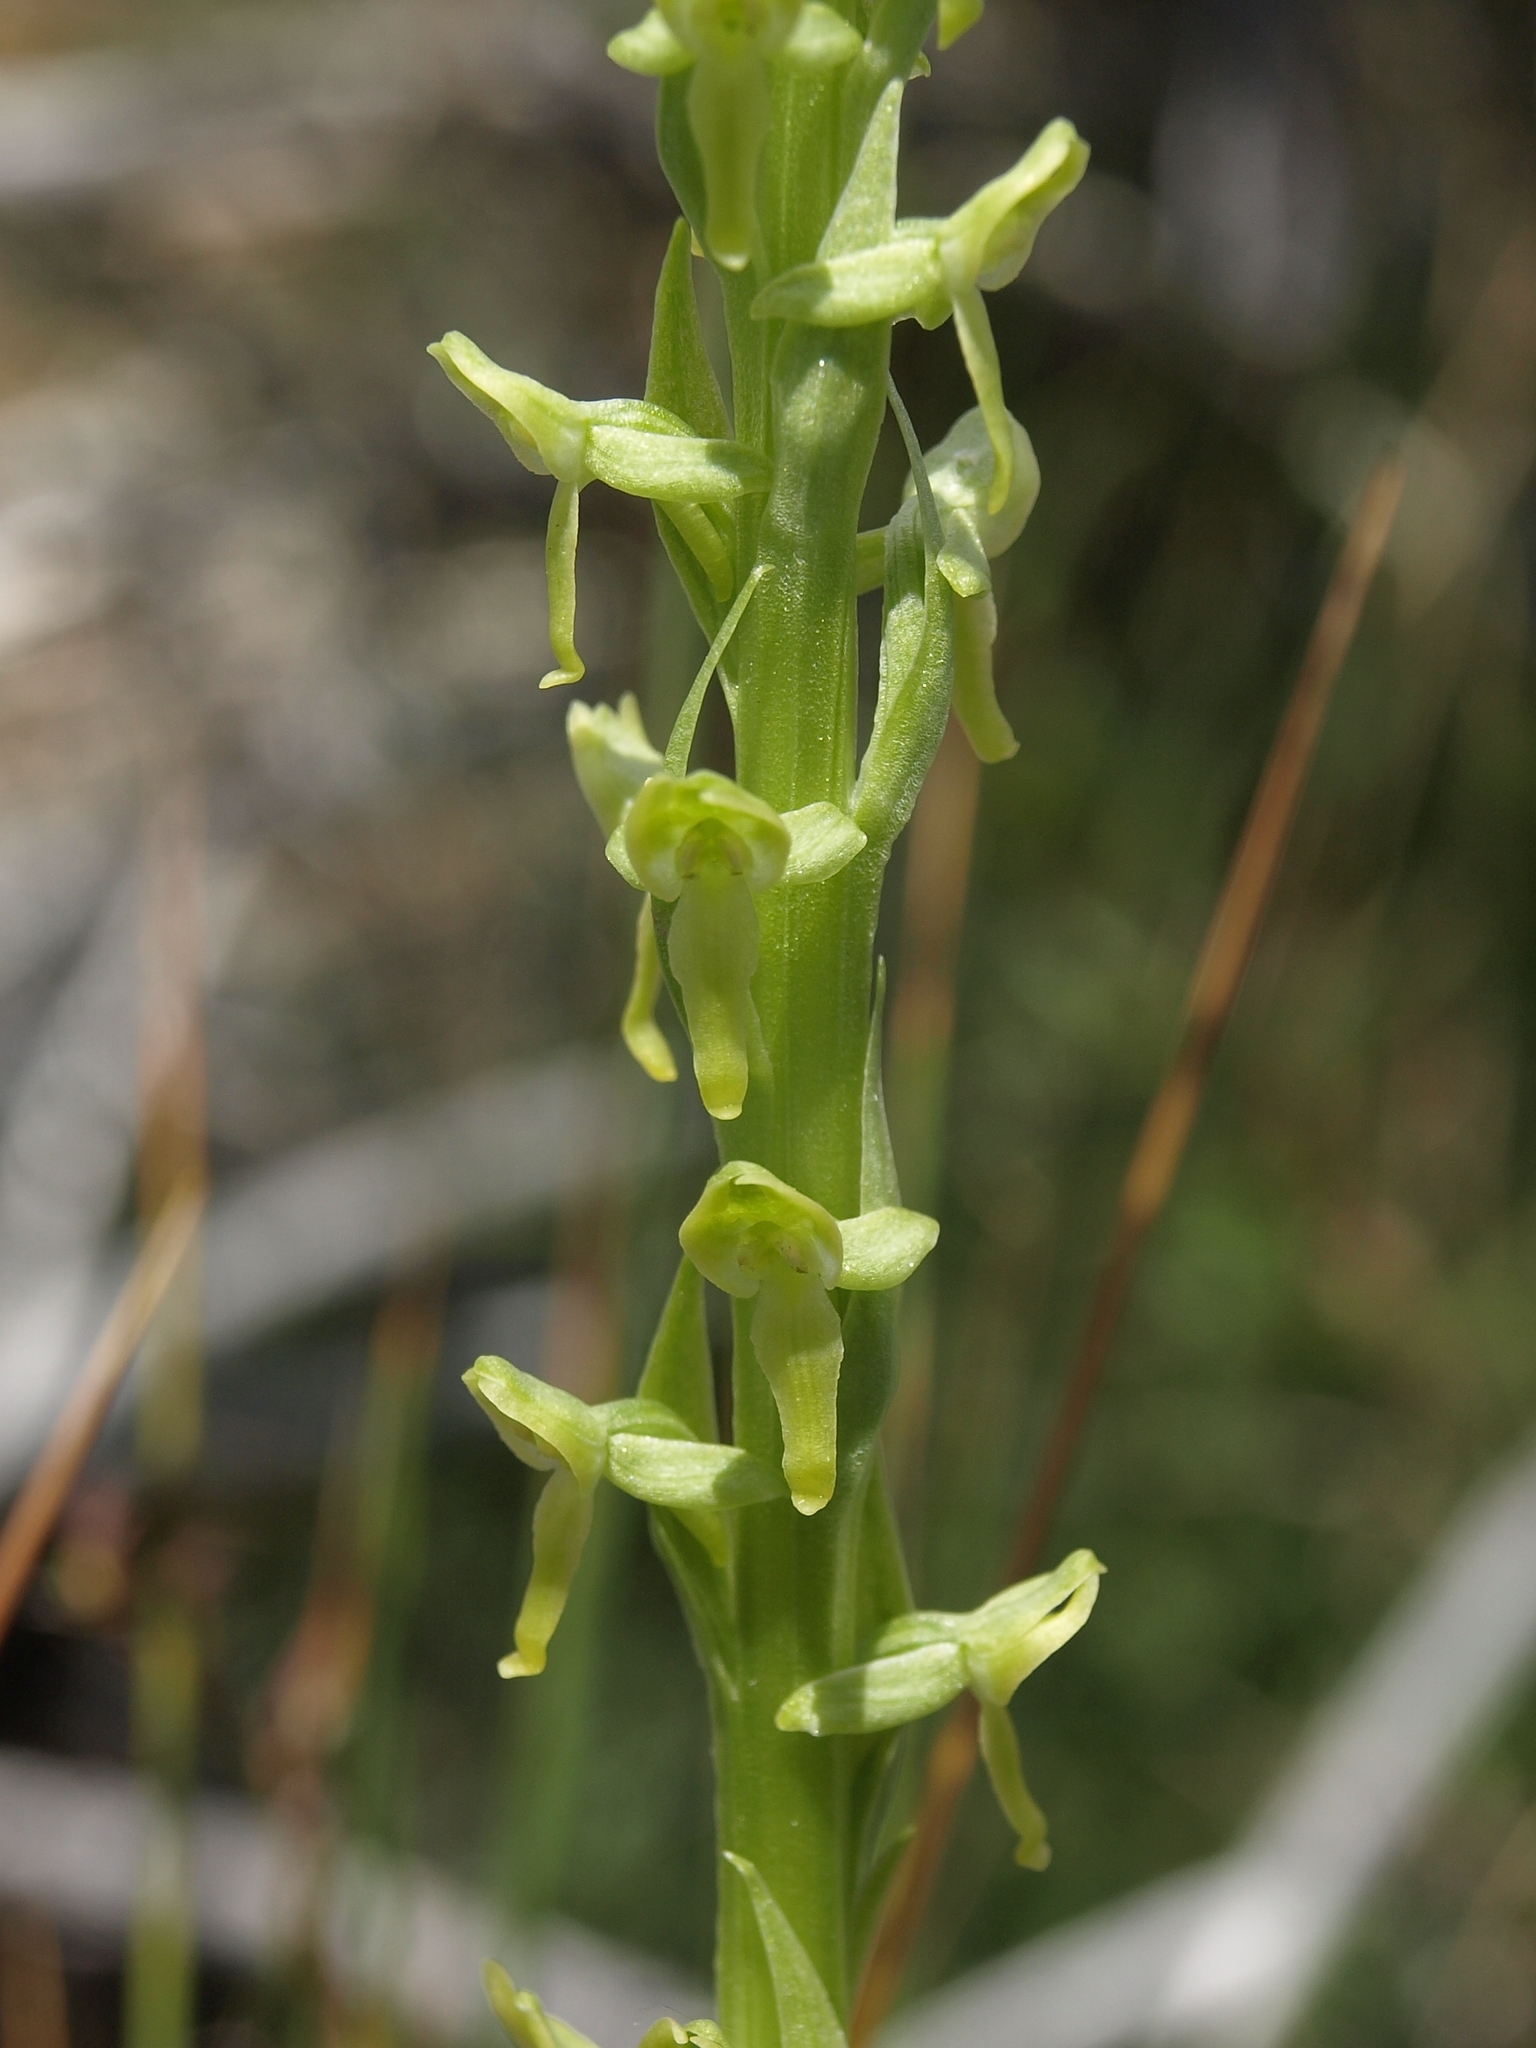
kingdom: Plantae
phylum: Tracheophyta
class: Liliopsida
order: Asparagales
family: Orchidaceae
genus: Platanthera
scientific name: Platanthera tescamnis
